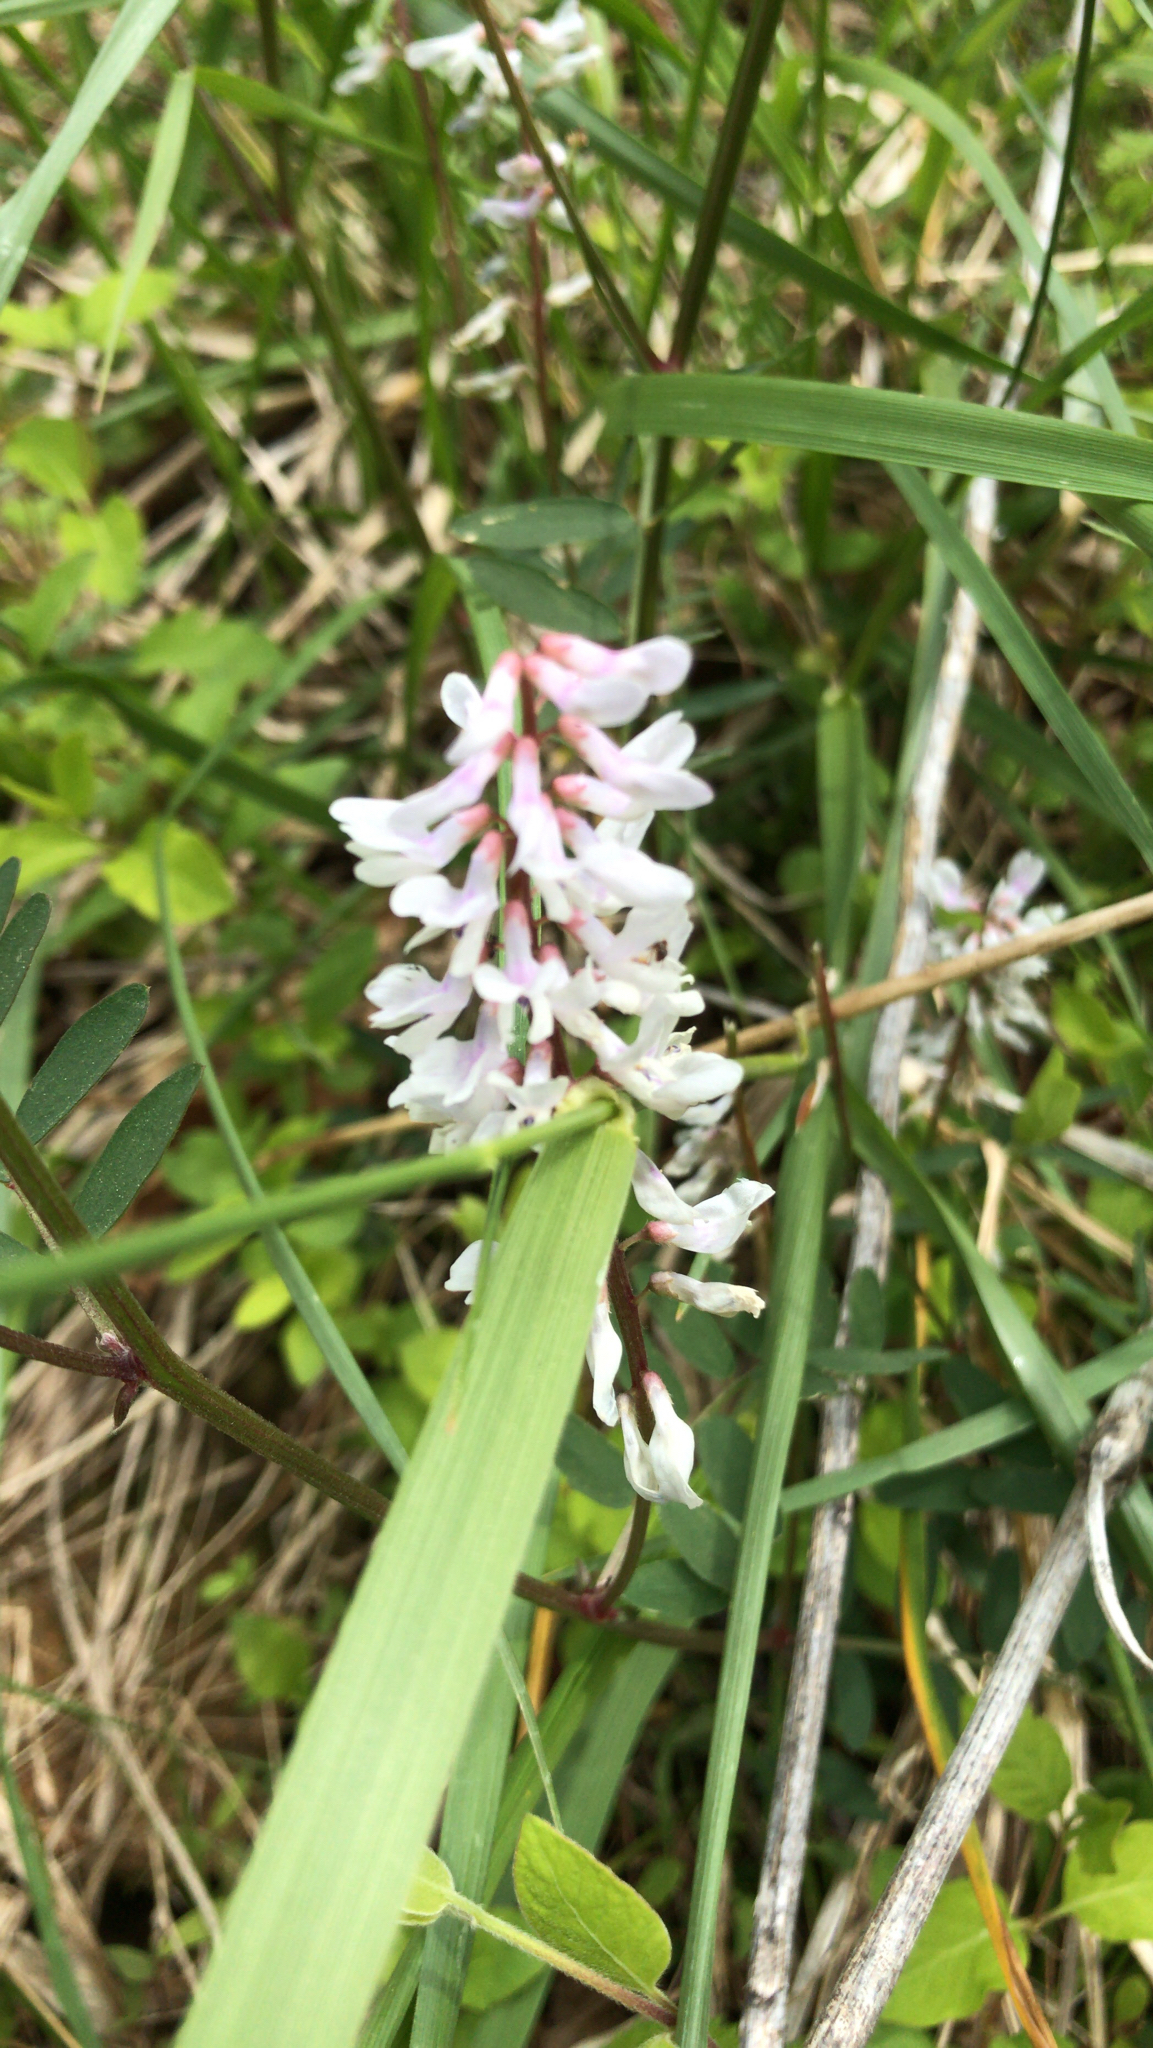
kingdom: Plantae
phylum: Tracheophyta
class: Magnoliopsida
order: Fabales
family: Fabaceae
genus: Vicia
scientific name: Vicia caroliniana
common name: Carolina vetch
